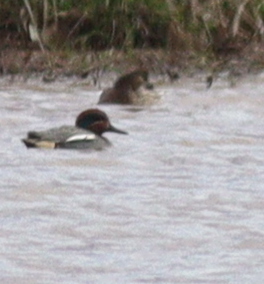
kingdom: Animalia
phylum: Chordata
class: Aves
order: Anseriformes
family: Anatidae
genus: Anas
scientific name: Anas crecca
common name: Eurasian teal
